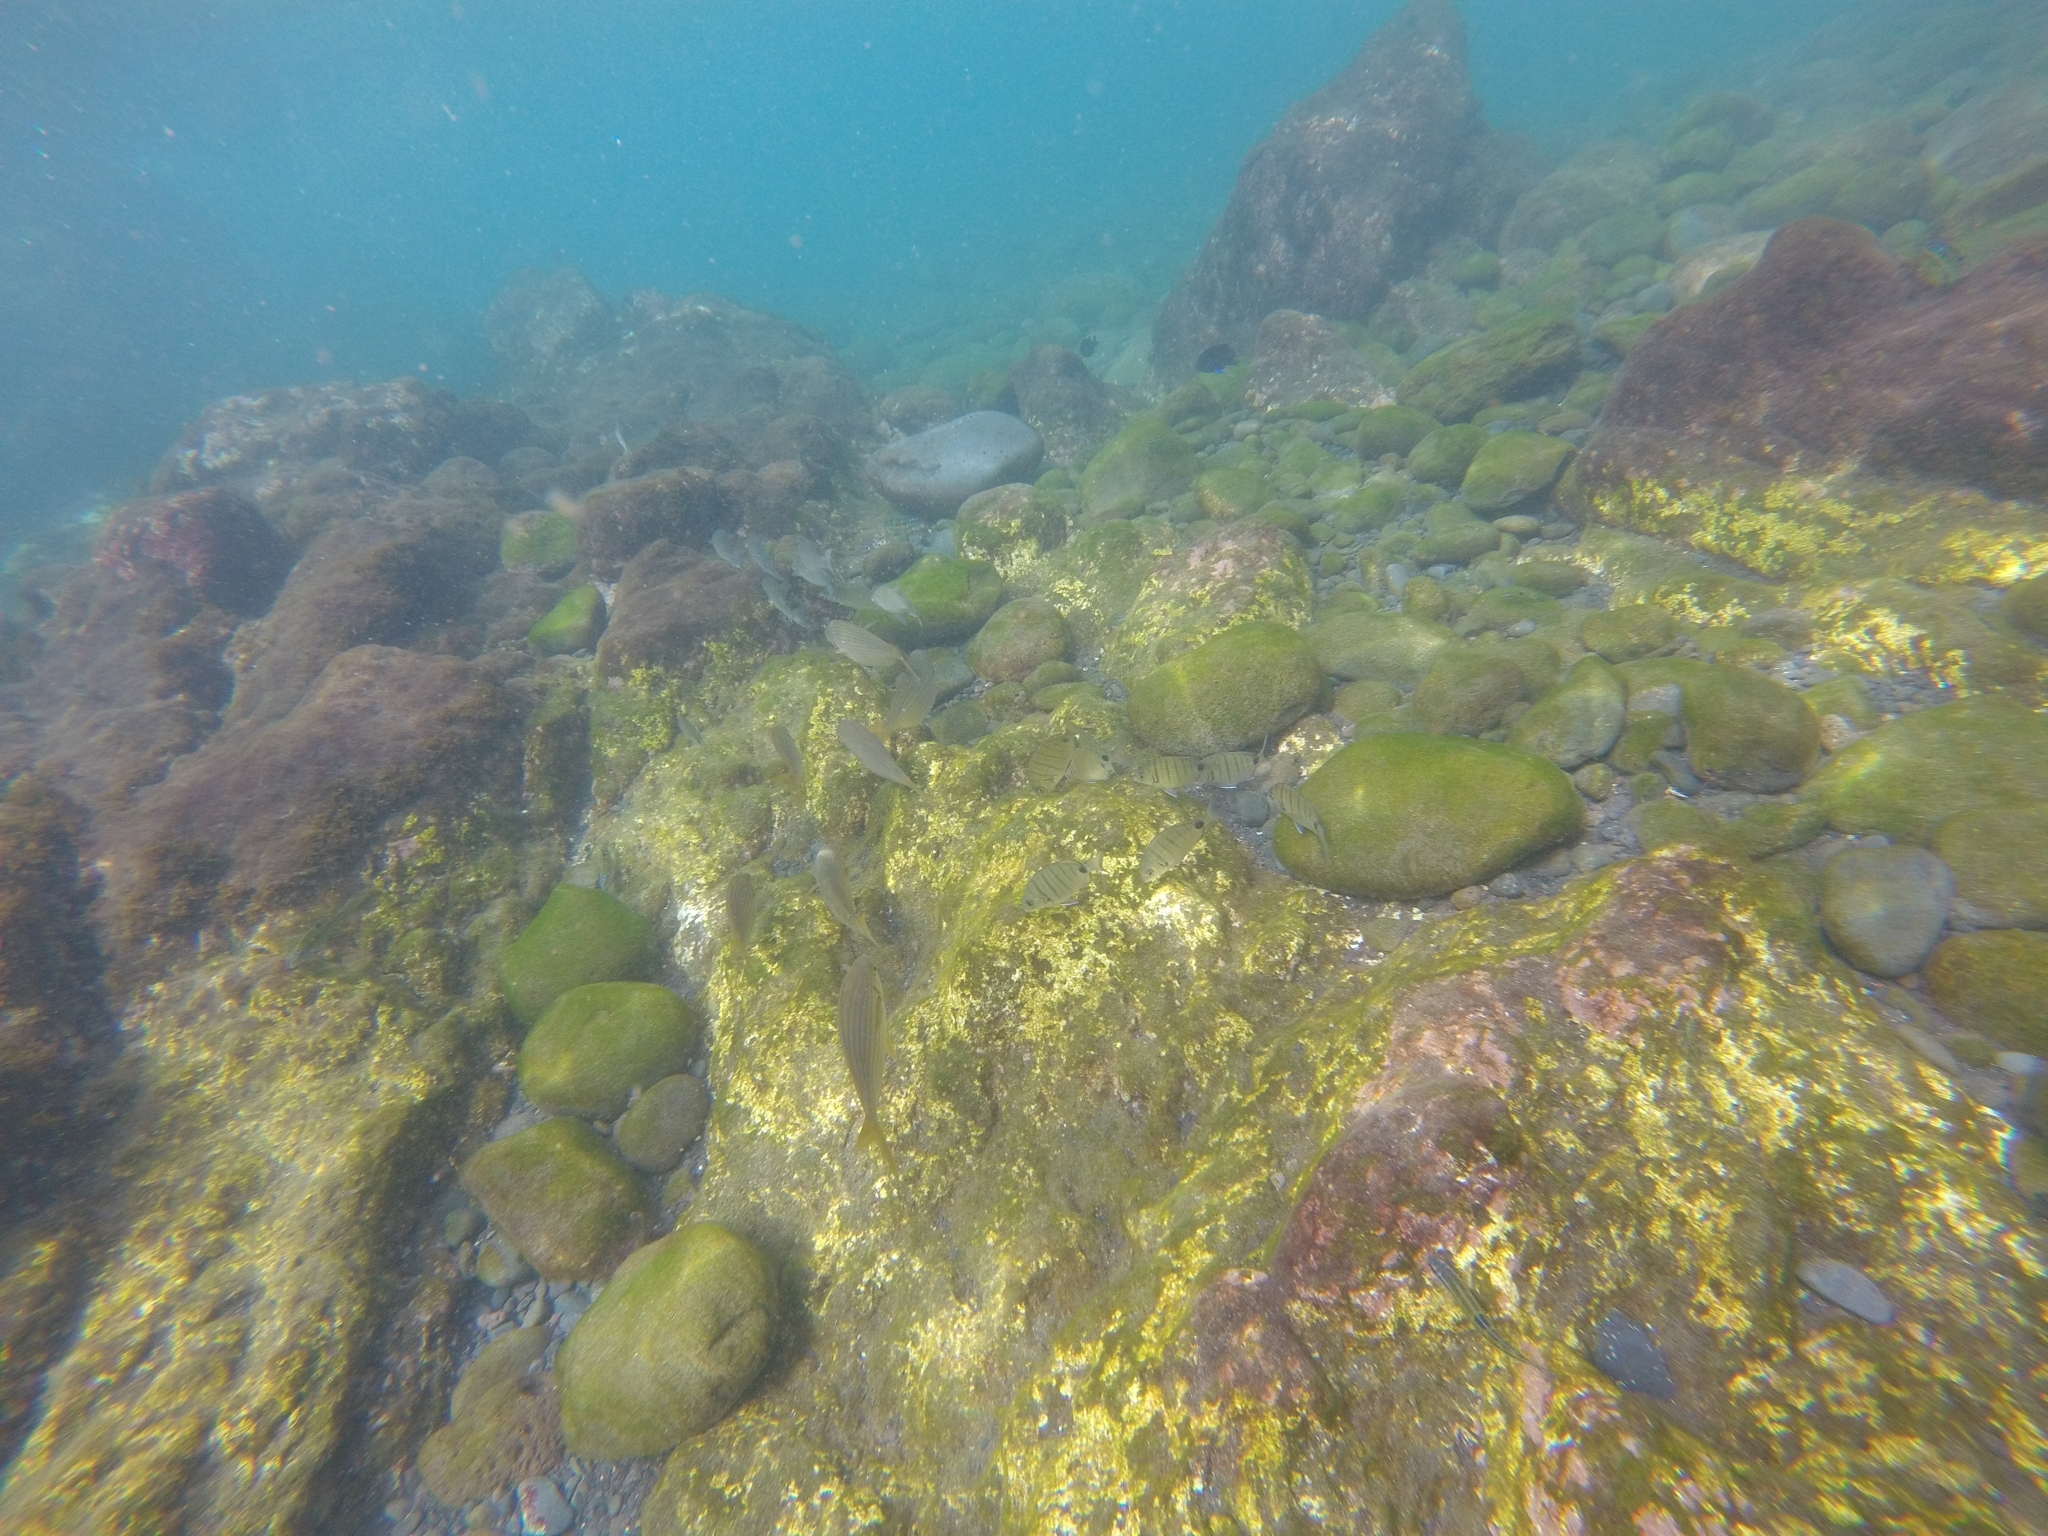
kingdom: Animalia
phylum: Chordata
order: Perciformes
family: Sparidae
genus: Sarpa
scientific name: Sarpa salpa
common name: Salema
